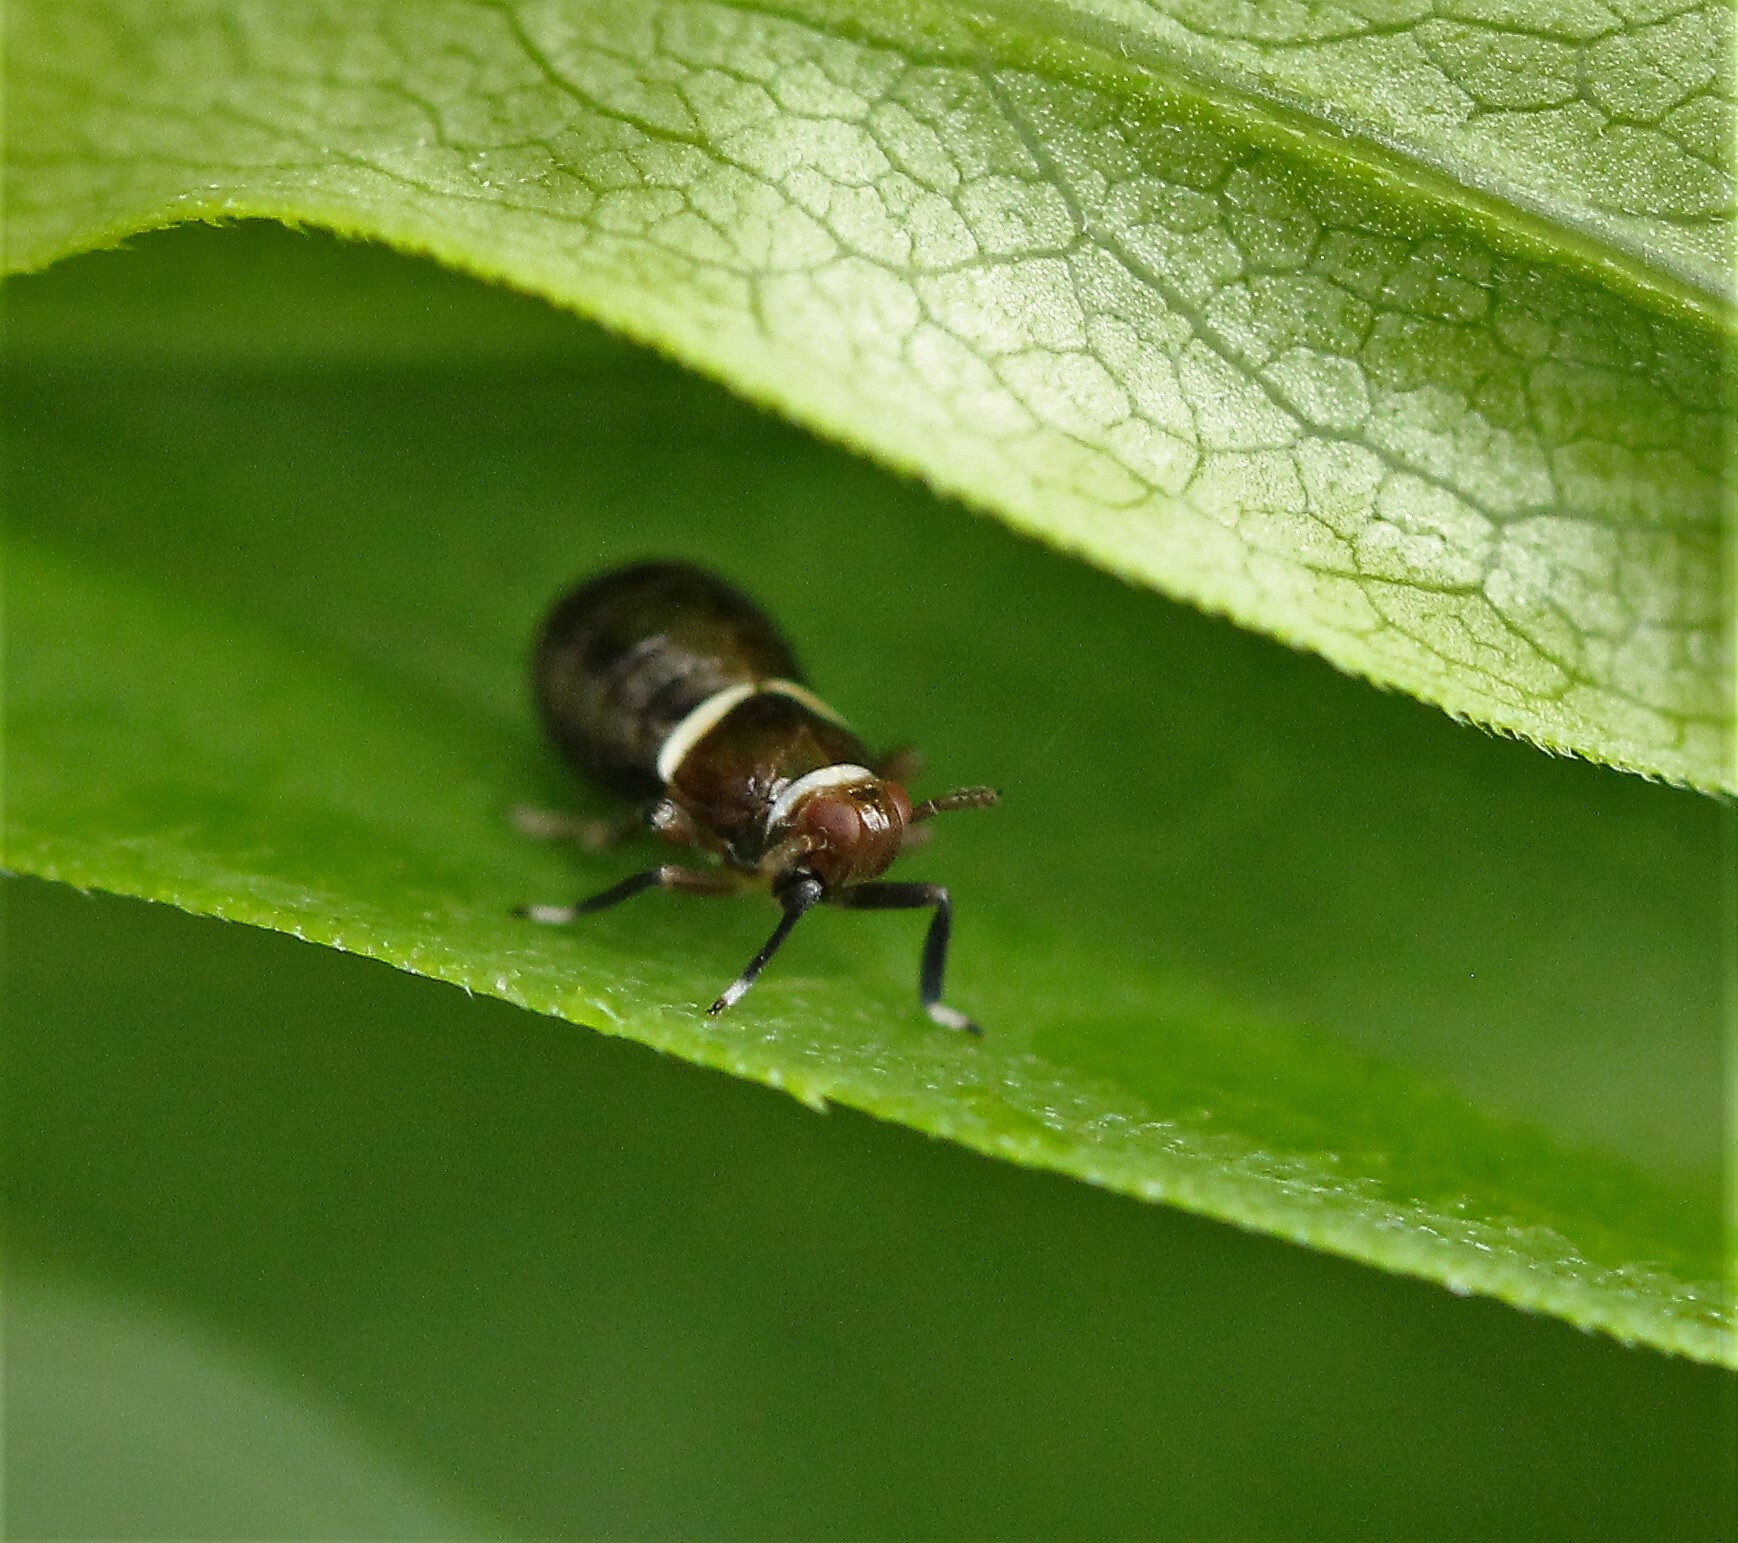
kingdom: Animalia
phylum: Arthropoda
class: Insecta
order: Hemiptera
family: Delphacidae
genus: Pissonotus
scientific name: Pissonotus basalis
